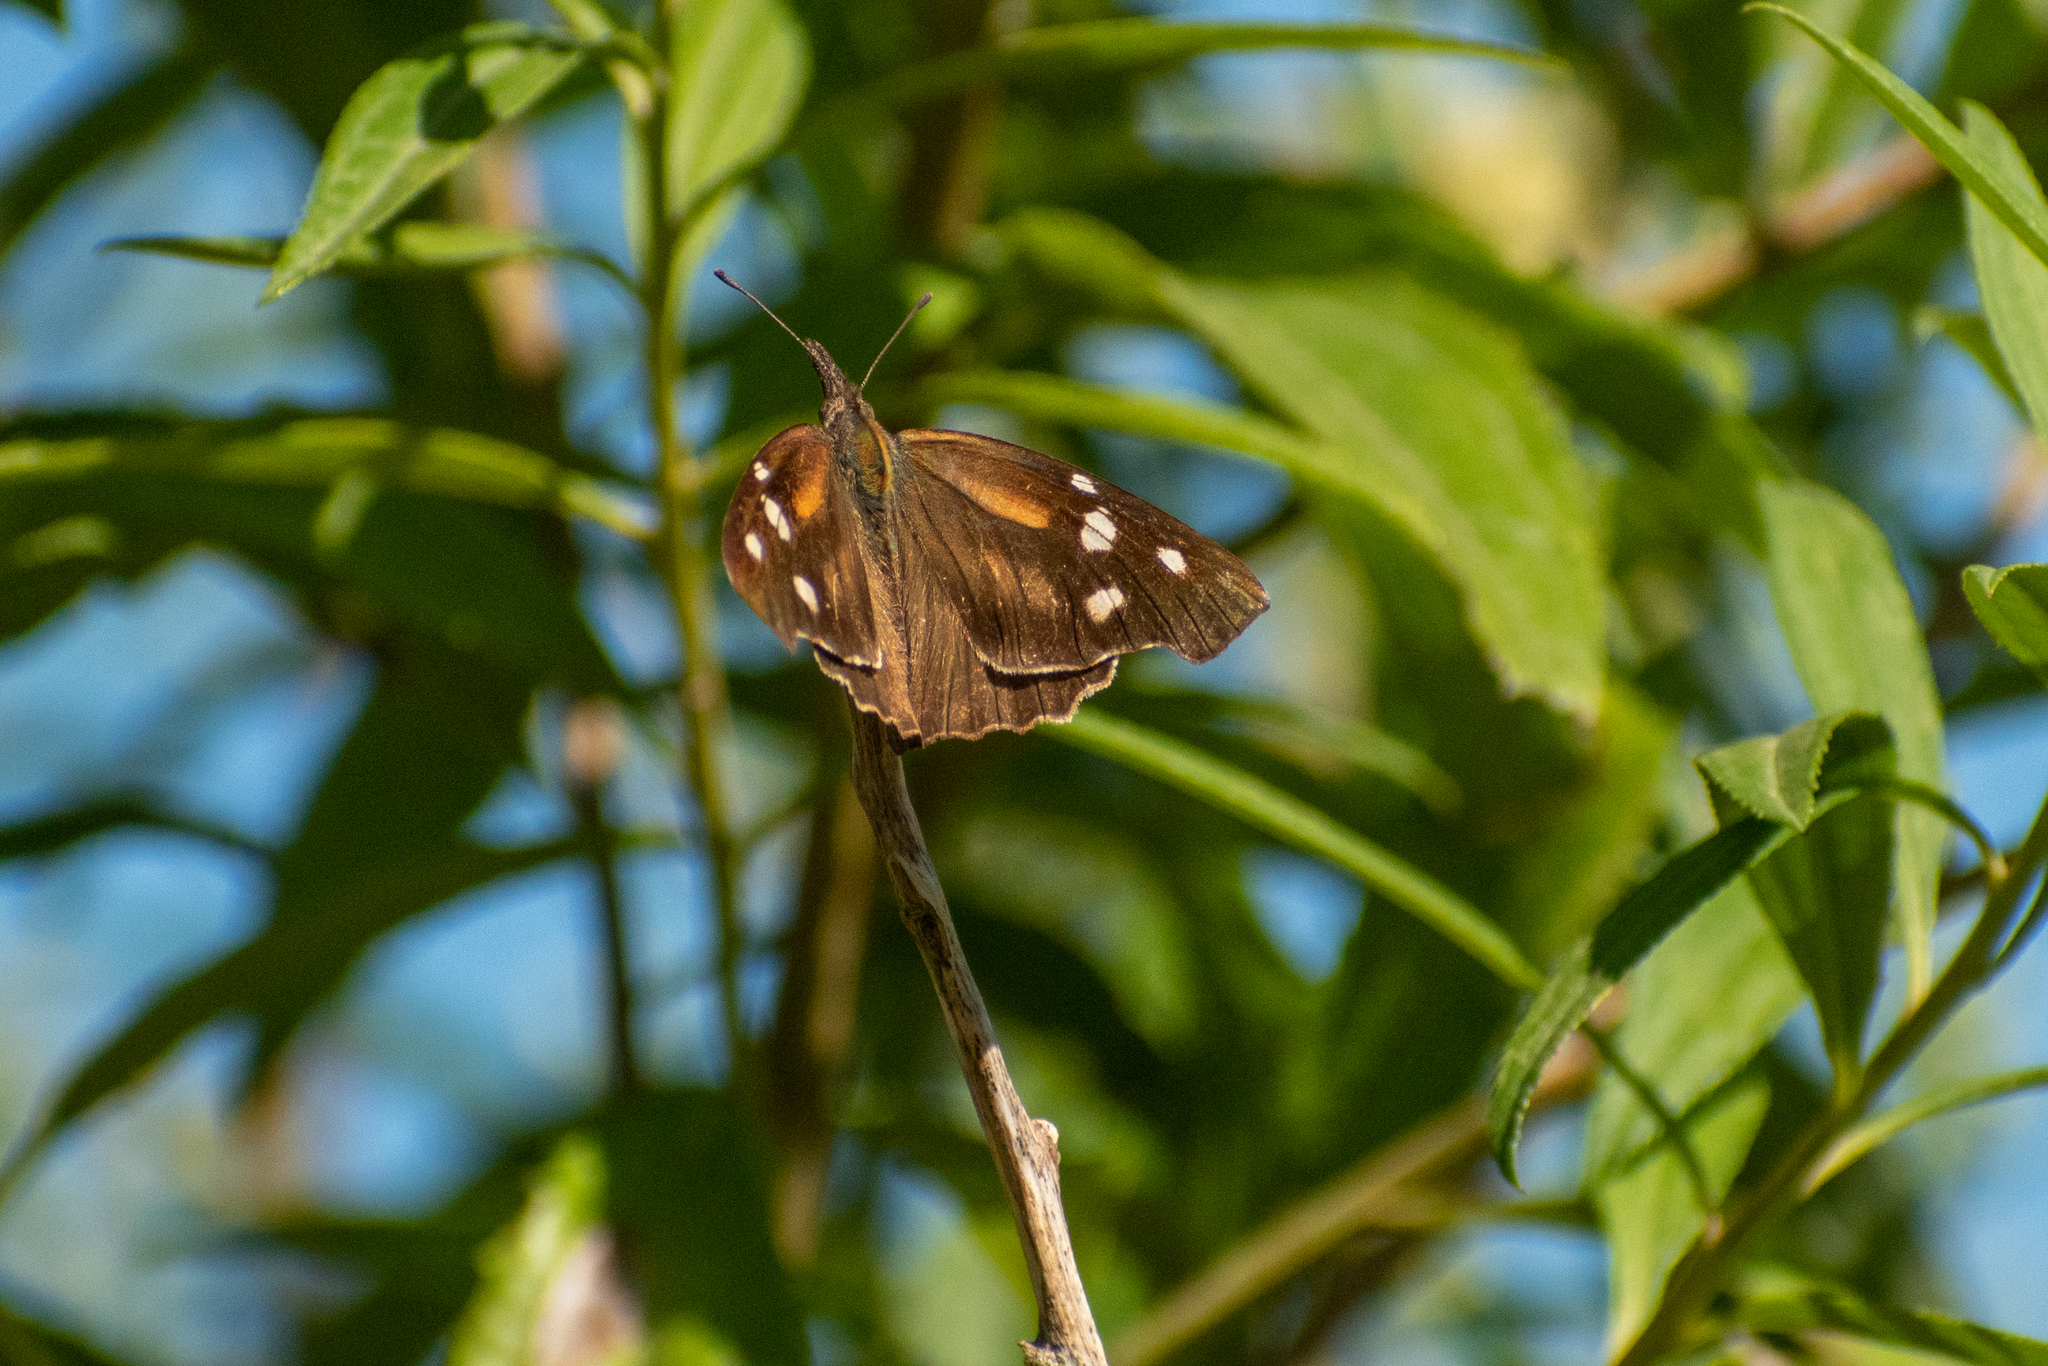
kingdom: Animalia
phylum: Arthropoda
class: Insecta
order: Lepidoptera
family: Nymphalidae
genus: Libytheana
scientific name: Libytheana carinenta
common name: American snout
